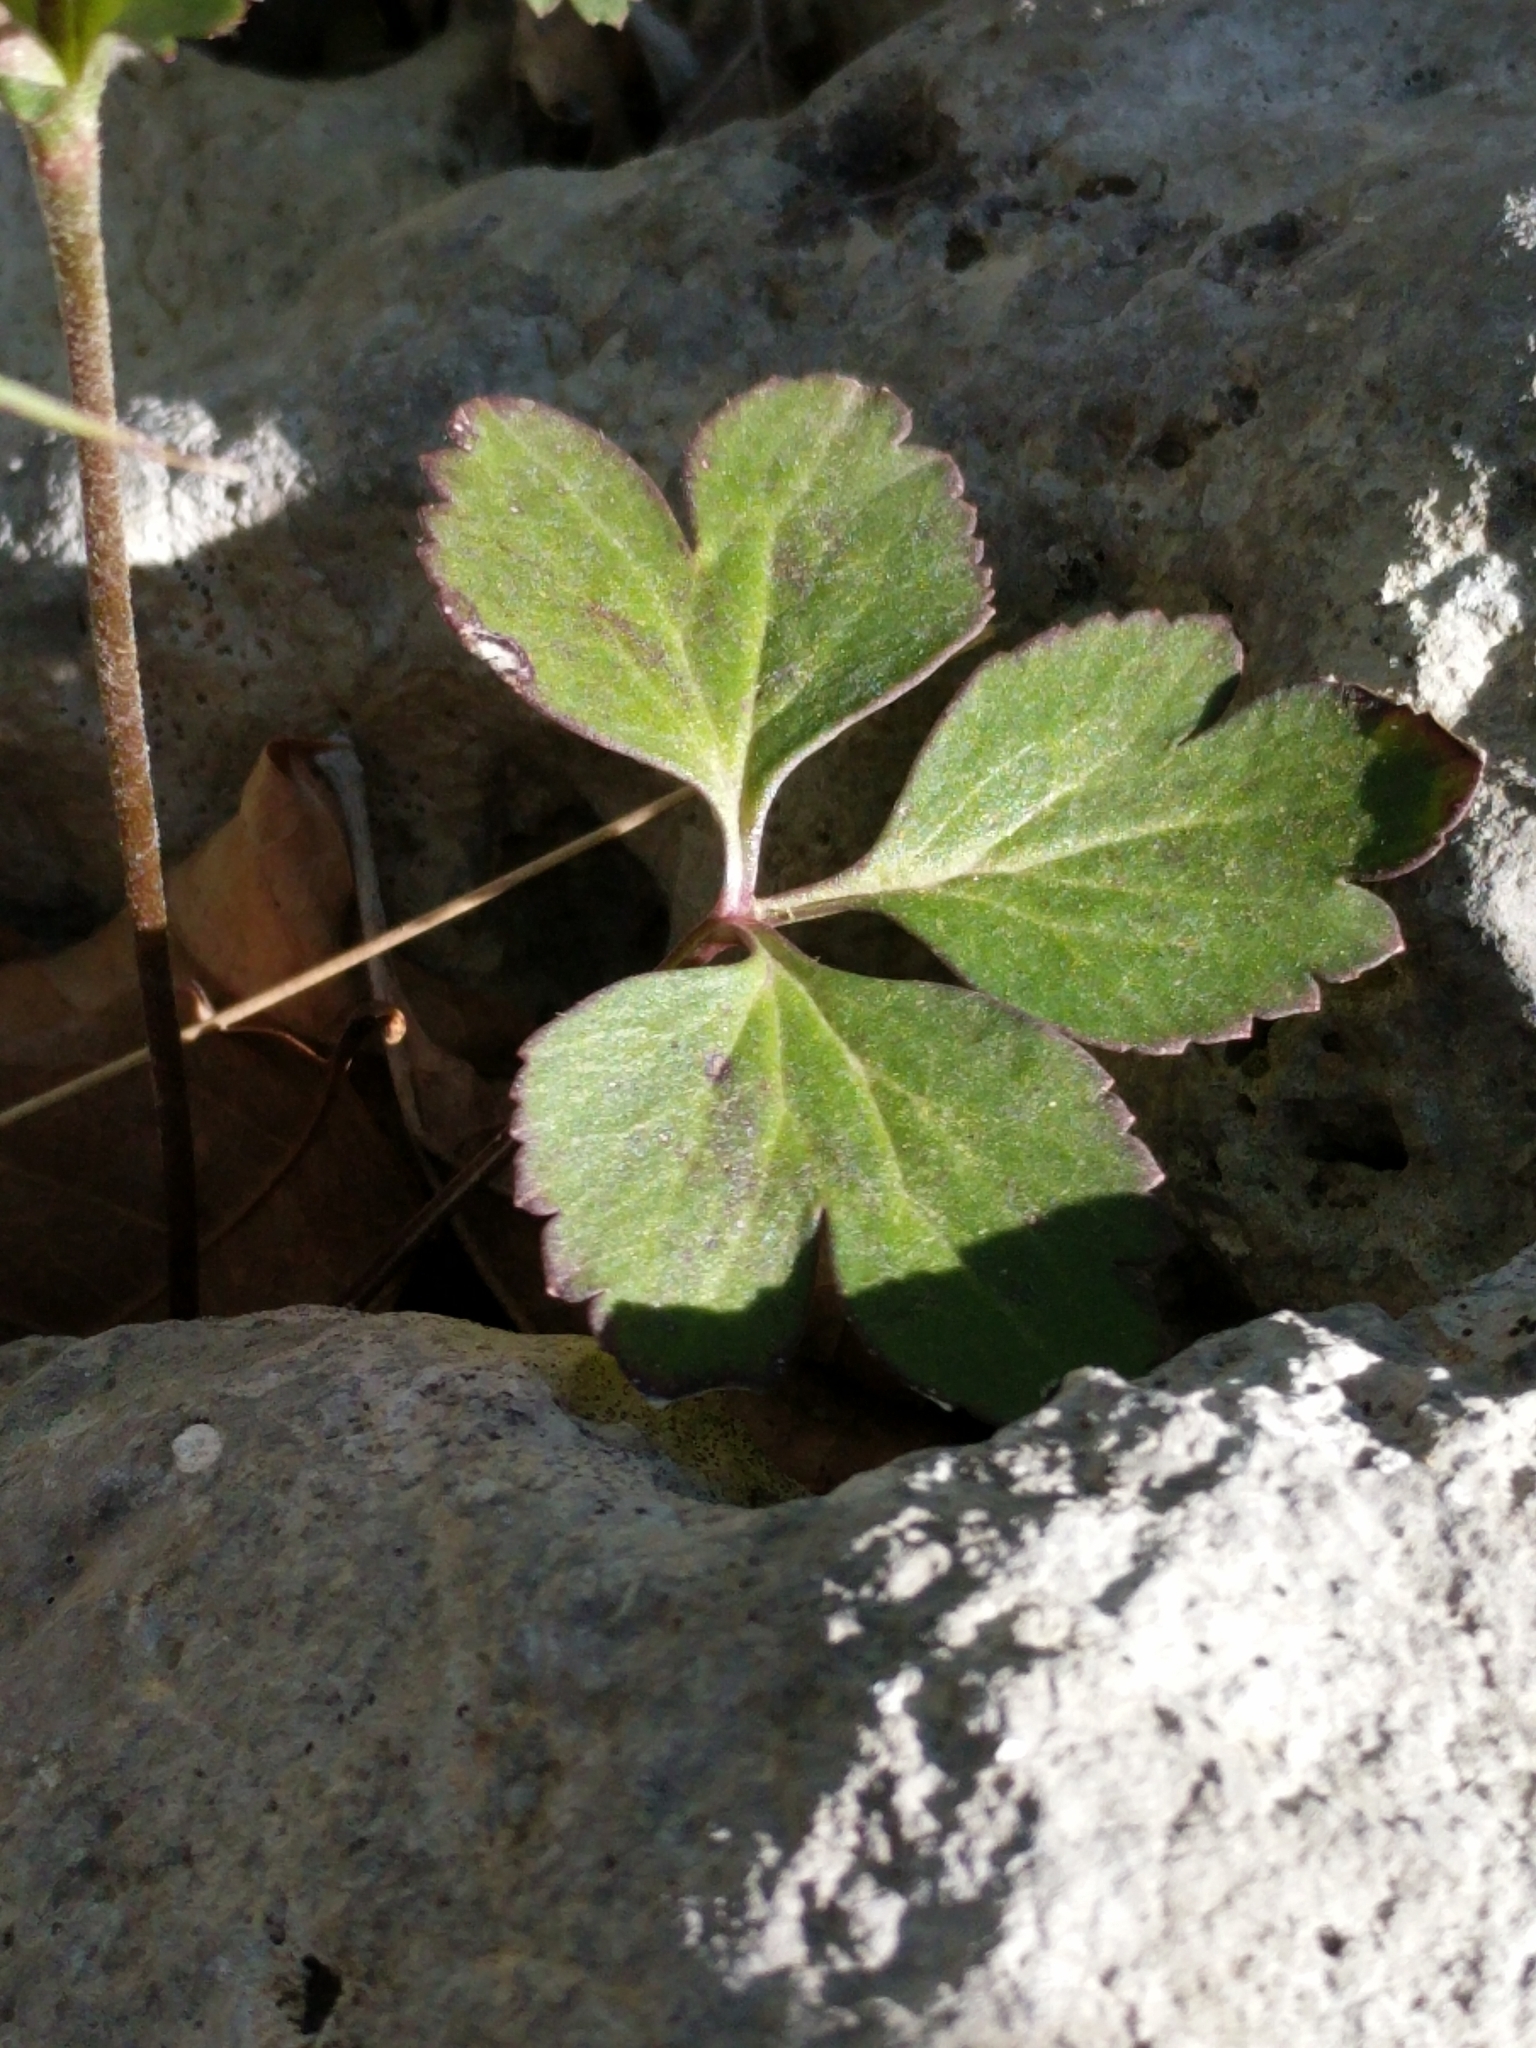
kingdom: Plantae
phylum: Tracheophyta
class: Magnoliopsida
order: Ranunculales
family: Ranunculaceae
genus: Anemone
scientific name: Anemone edwardsiana
